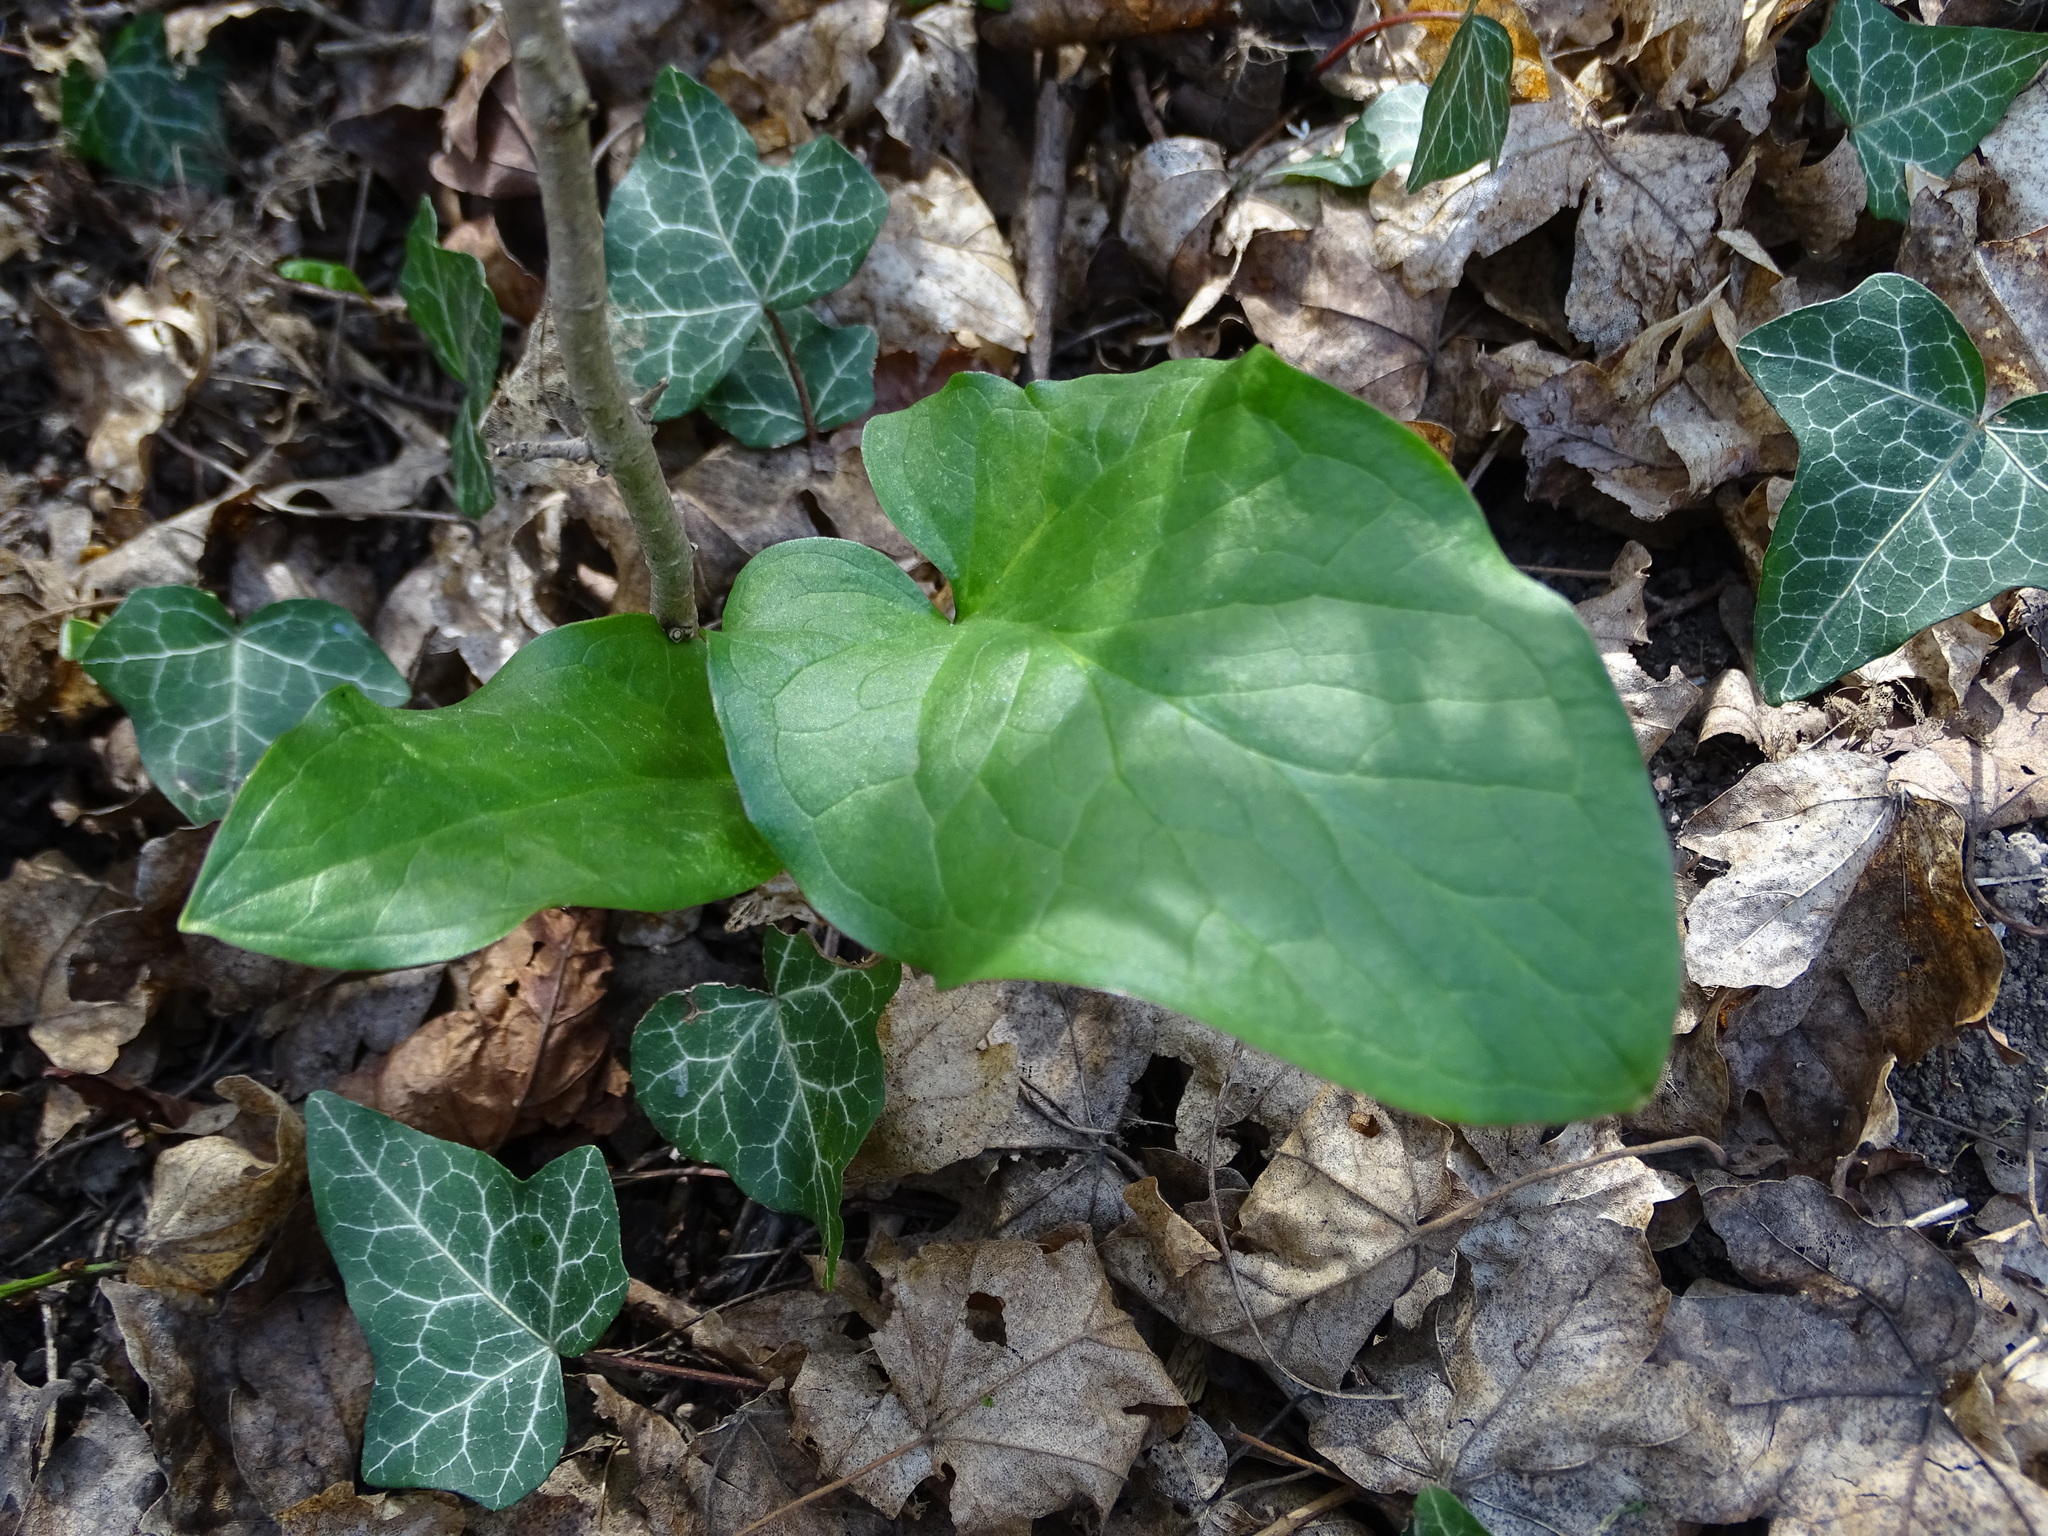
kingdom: Plantae
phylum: Tracheophyta
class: Liliopsida
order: Alismatales
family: Araceae
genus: Arum
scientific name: Arum cylindraceum
